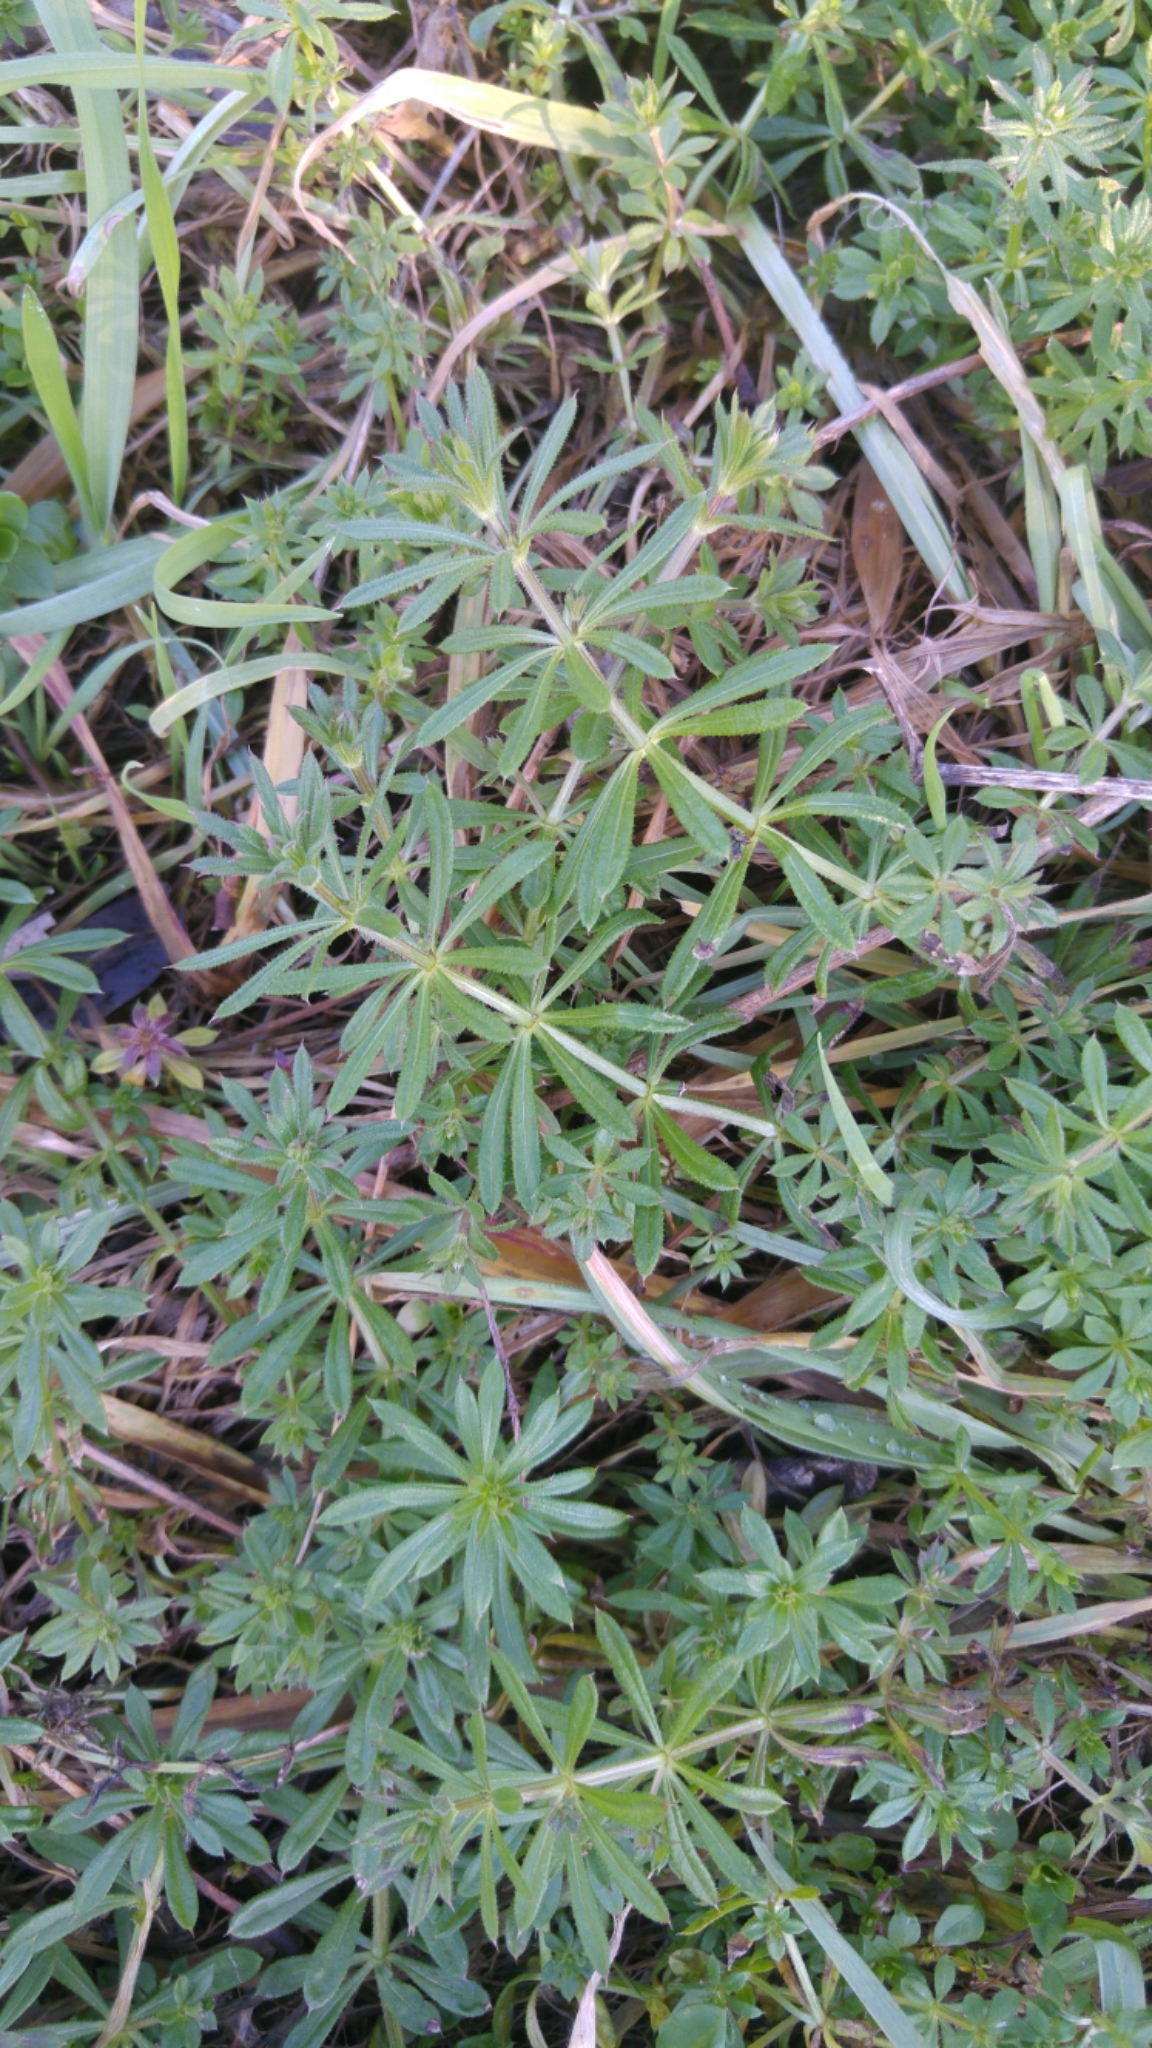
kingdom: Plantae
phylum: Tracheophyta
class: Magnoliopsida
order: Gentianales
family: Rubiaceae
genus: Galium
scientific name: Galium aparine
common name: Cleavers
